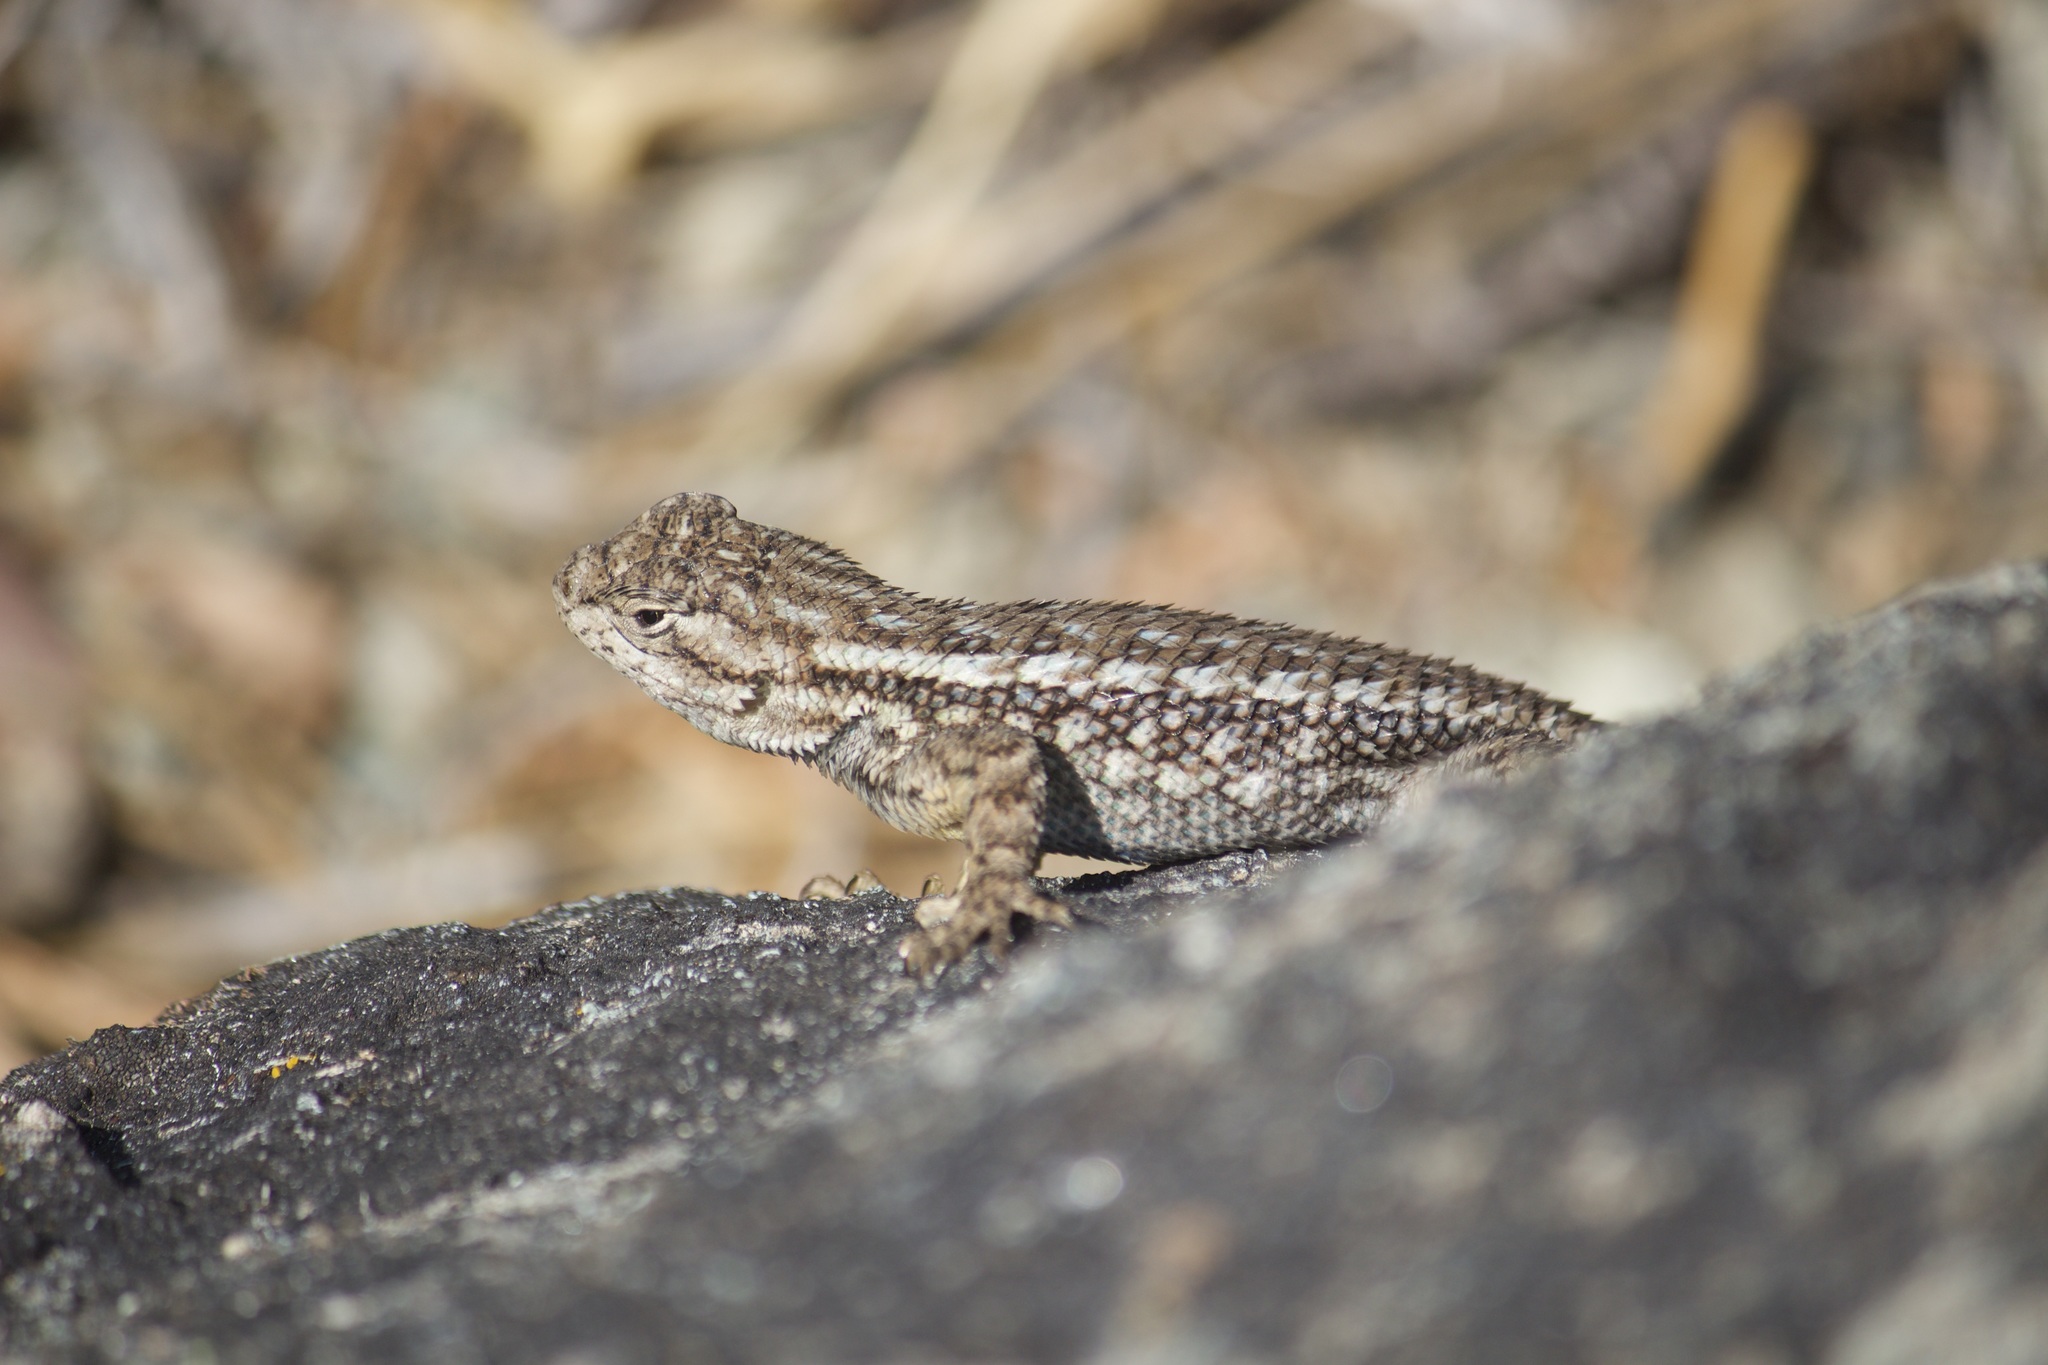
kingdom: Animalia
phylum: Chordata
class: Squamata
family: Phrynosomatidae
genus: Sceloporus
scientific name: Sceloporus occidentalis
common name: Western fence lizard
